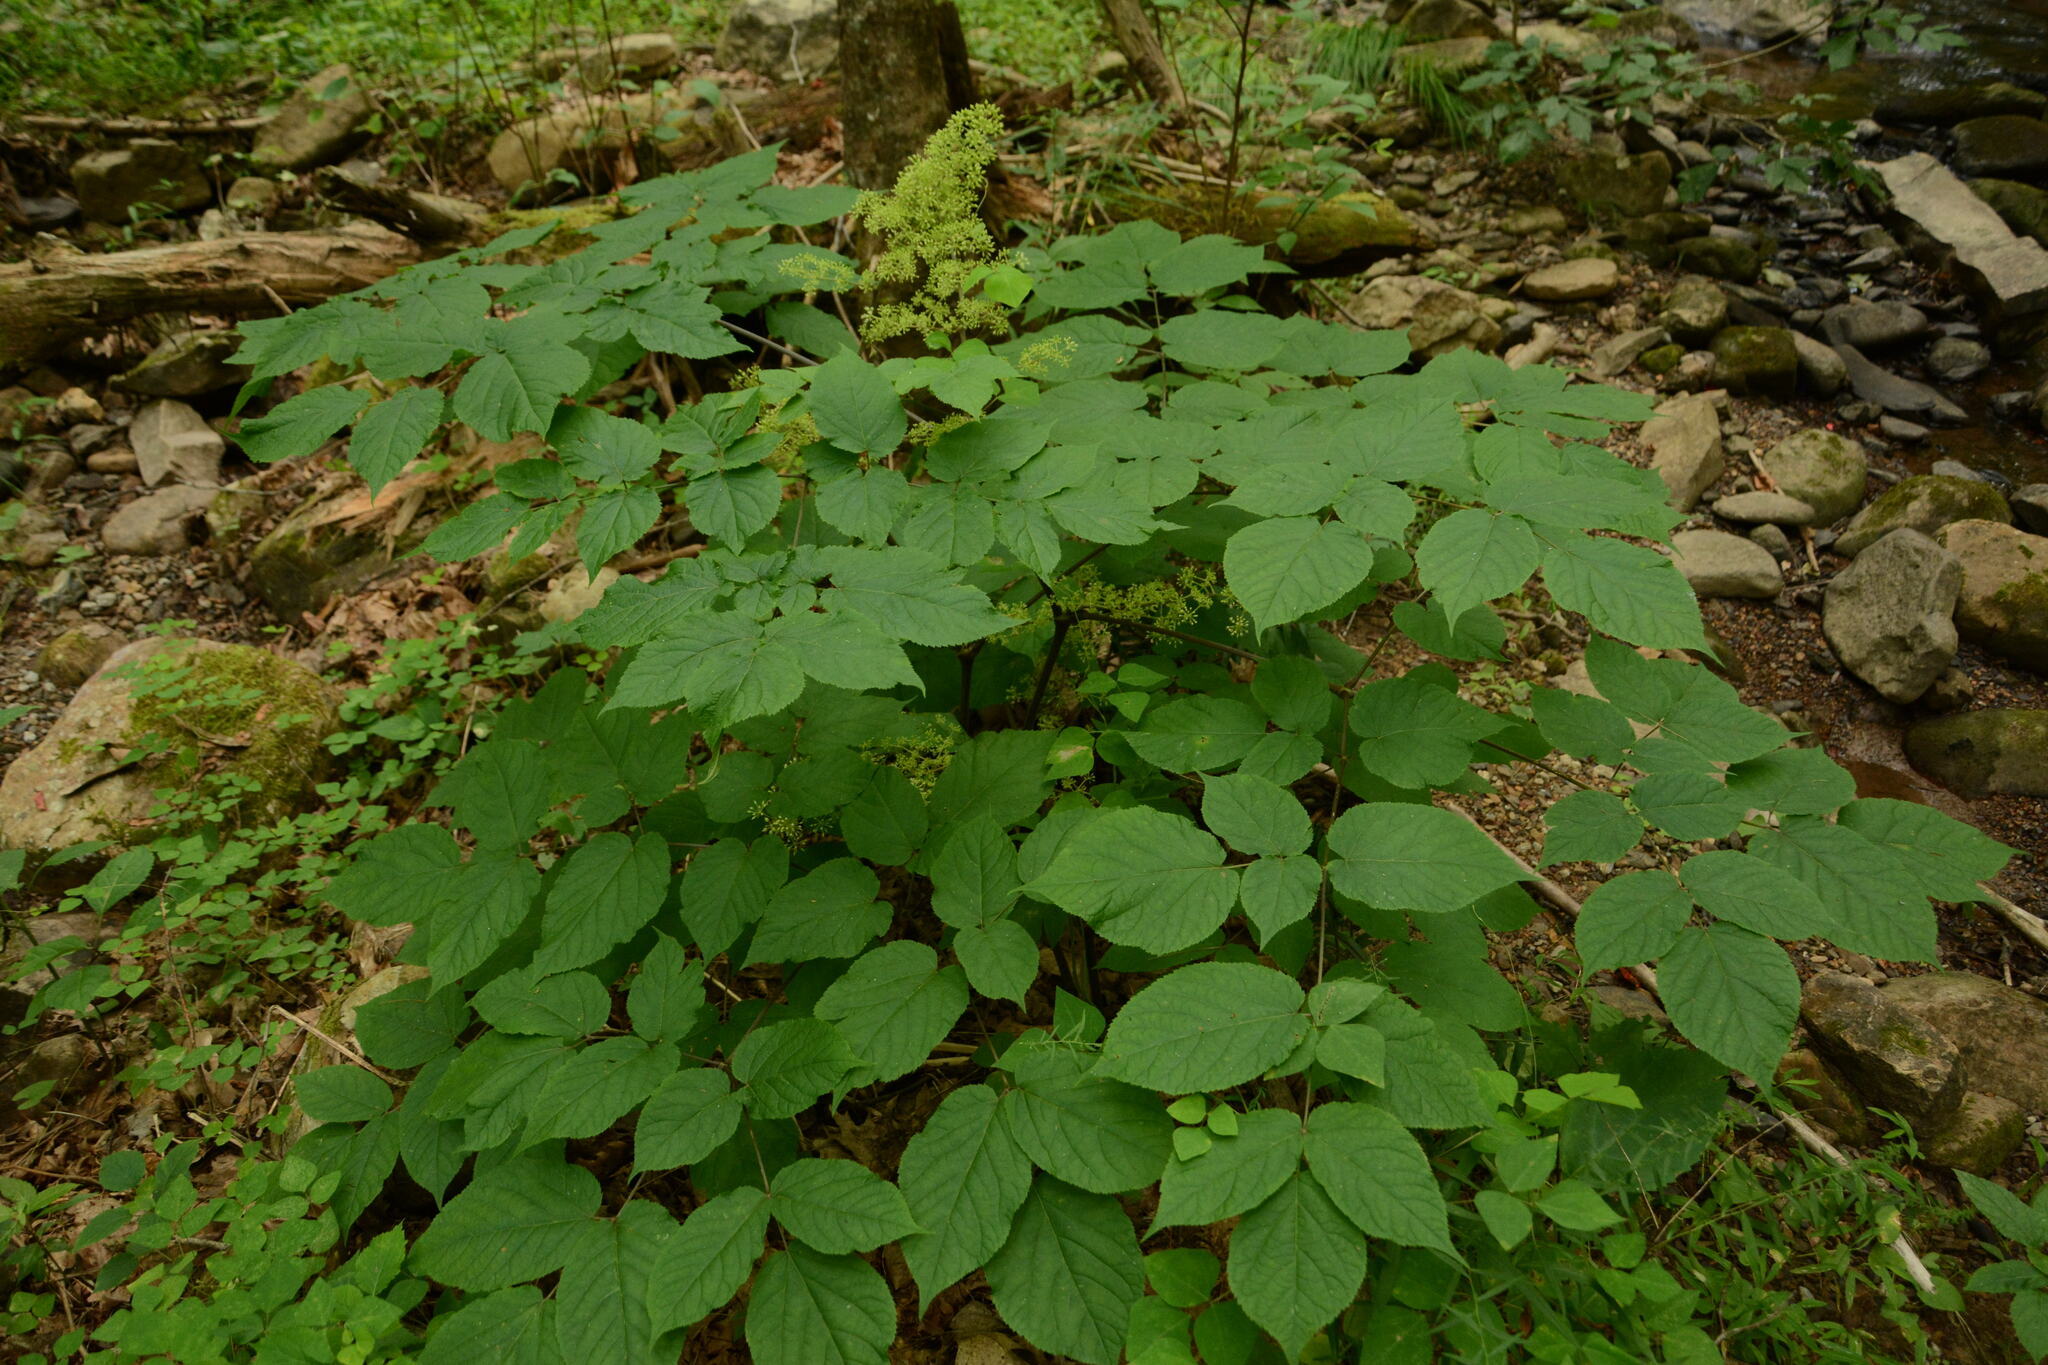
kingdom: Plantae
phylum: Tracheophyta
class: Magnoliopsida
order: Apiales
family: Araliaceae
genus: Aralia
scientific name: Aralia racemosa
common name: American-spikenard
